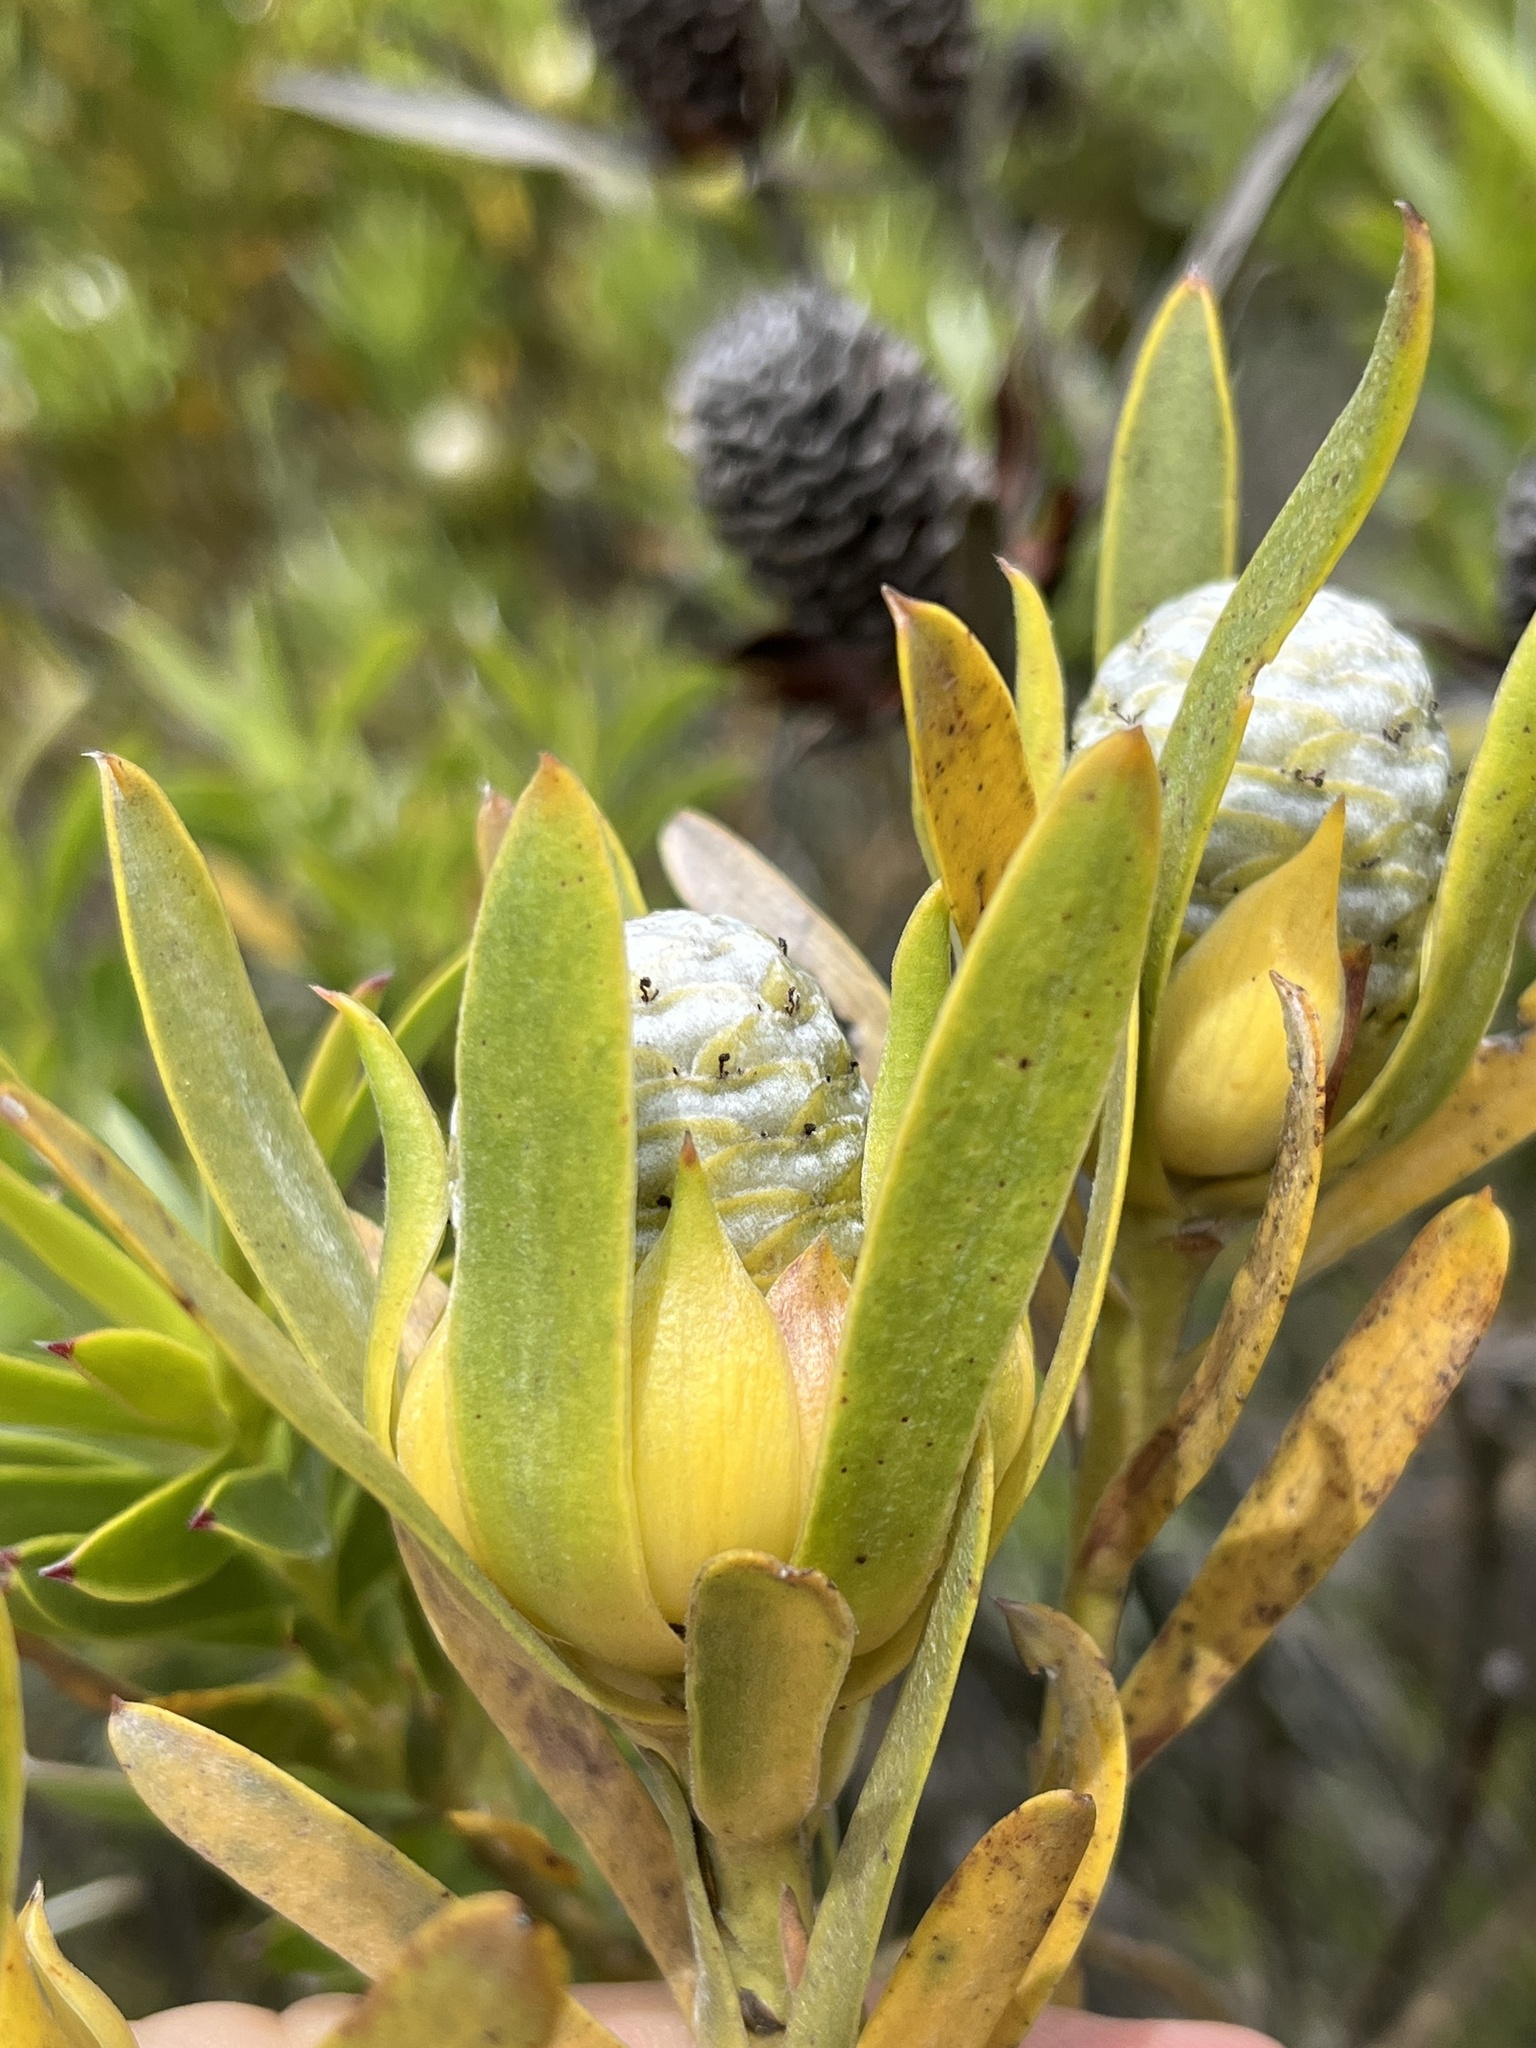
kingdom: Plantae
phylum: Tracheophyta
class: Magnoliopsida
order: Proteales
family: Proteaceae
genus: Leucadendron
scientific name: Leucadendron meridianum
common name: Limestone conebush
